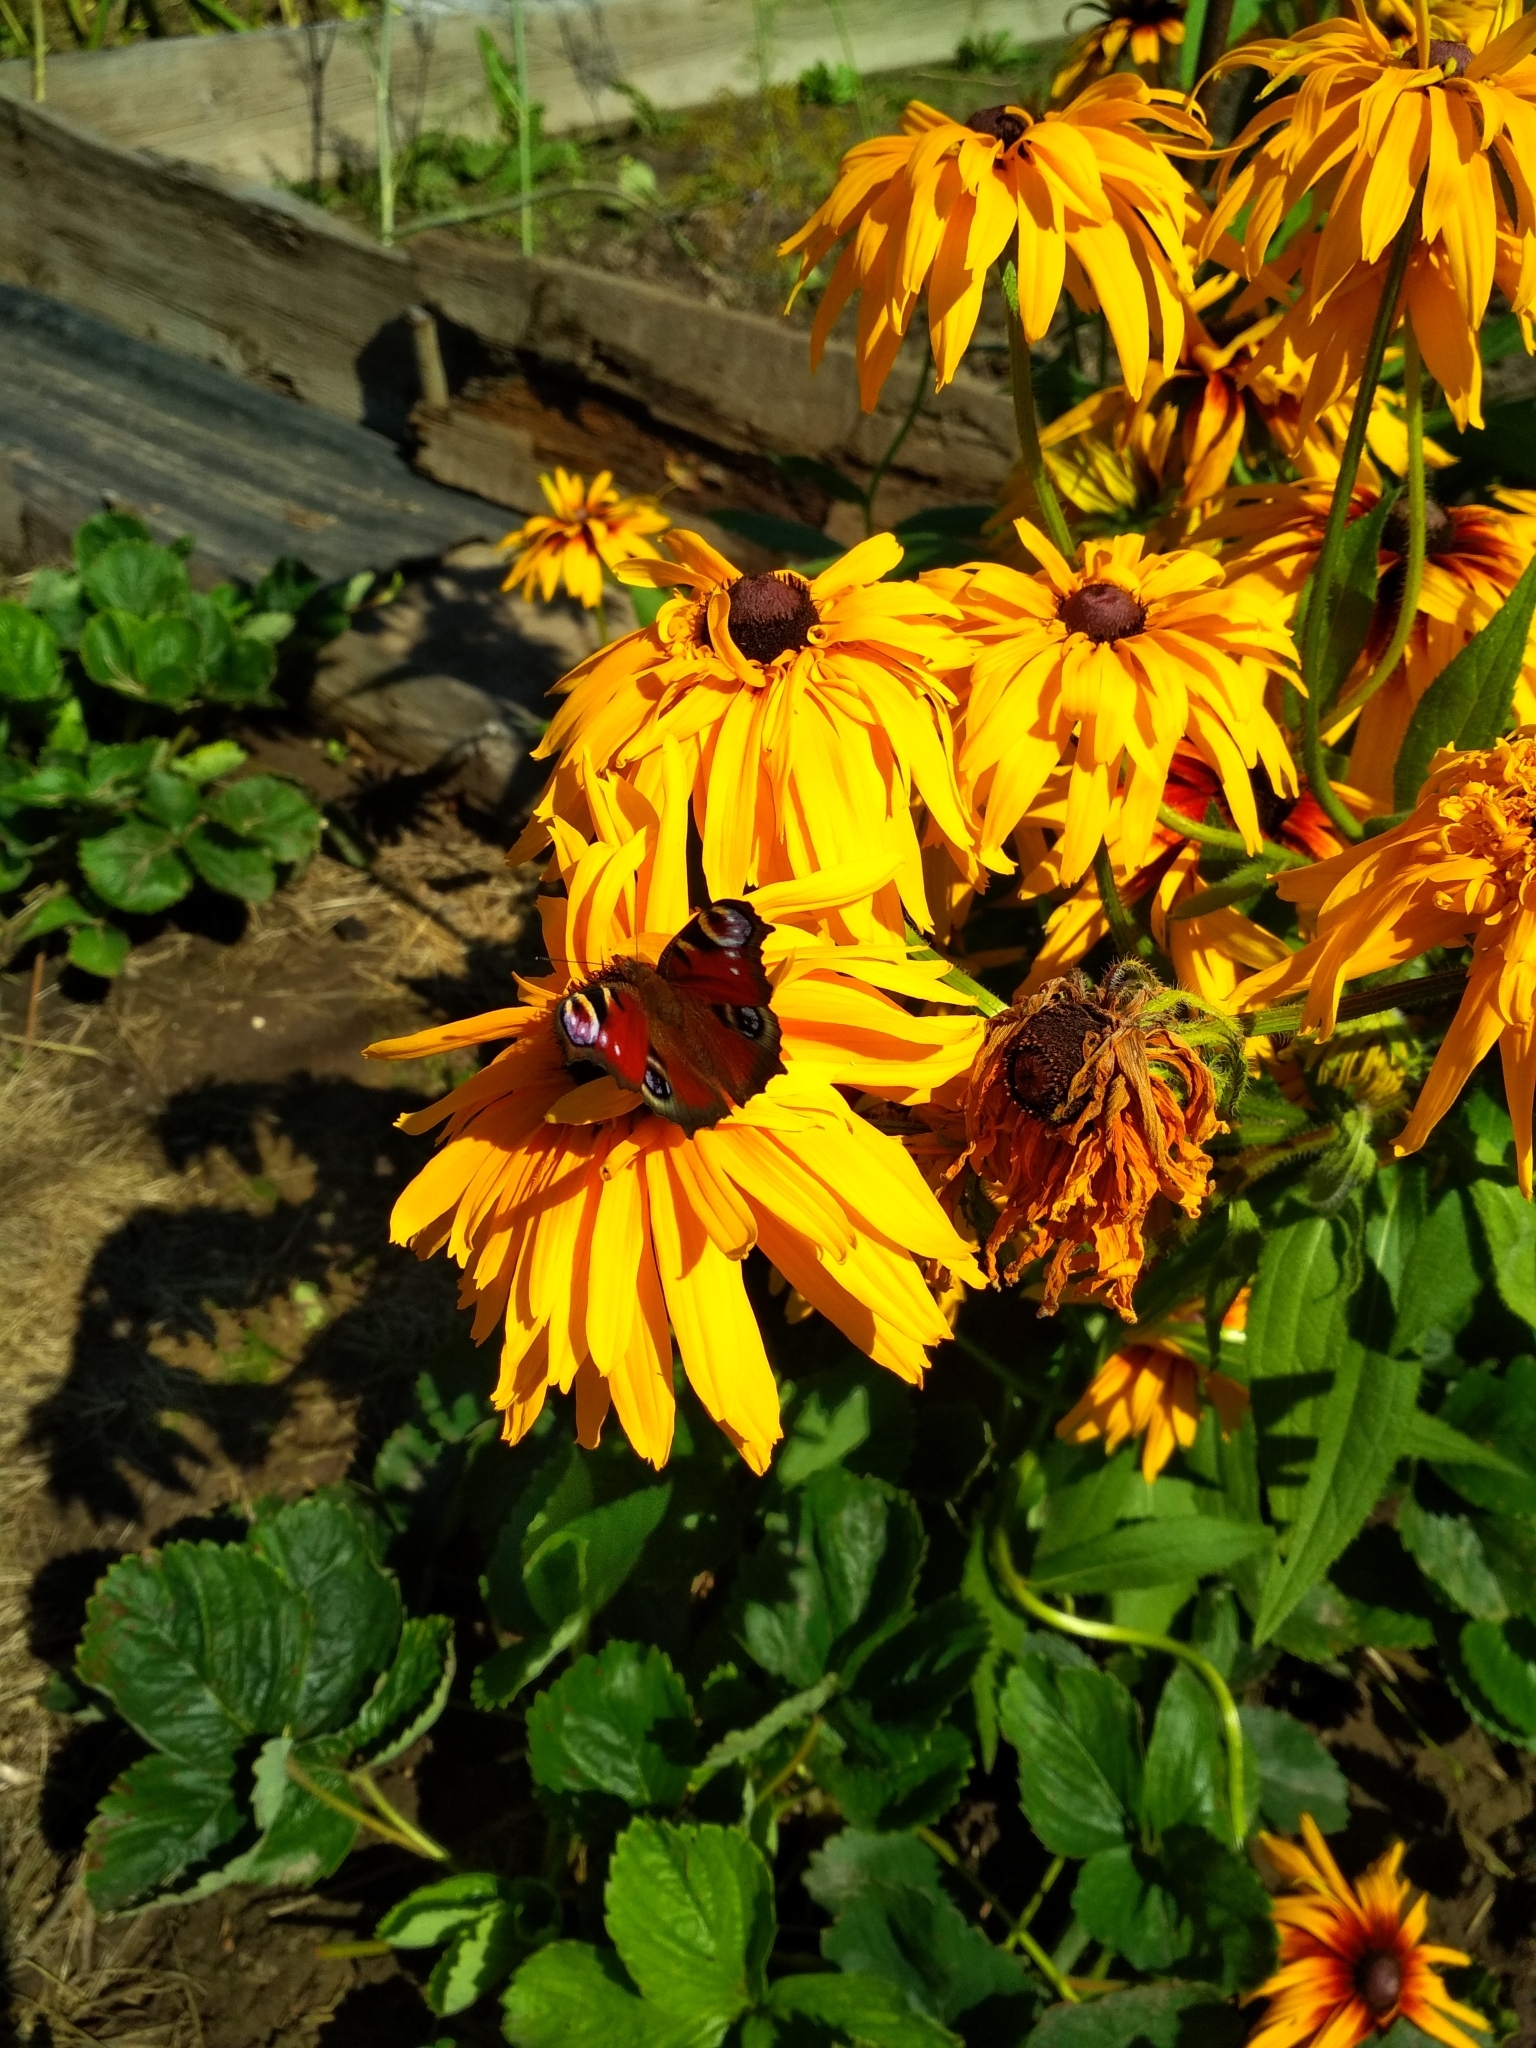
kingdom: Animalia
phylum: Arthropoda
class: Insecta
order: Lepidoptera
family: Nymphalidae
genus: Aglais
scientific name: Aglais io
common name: Peacock
